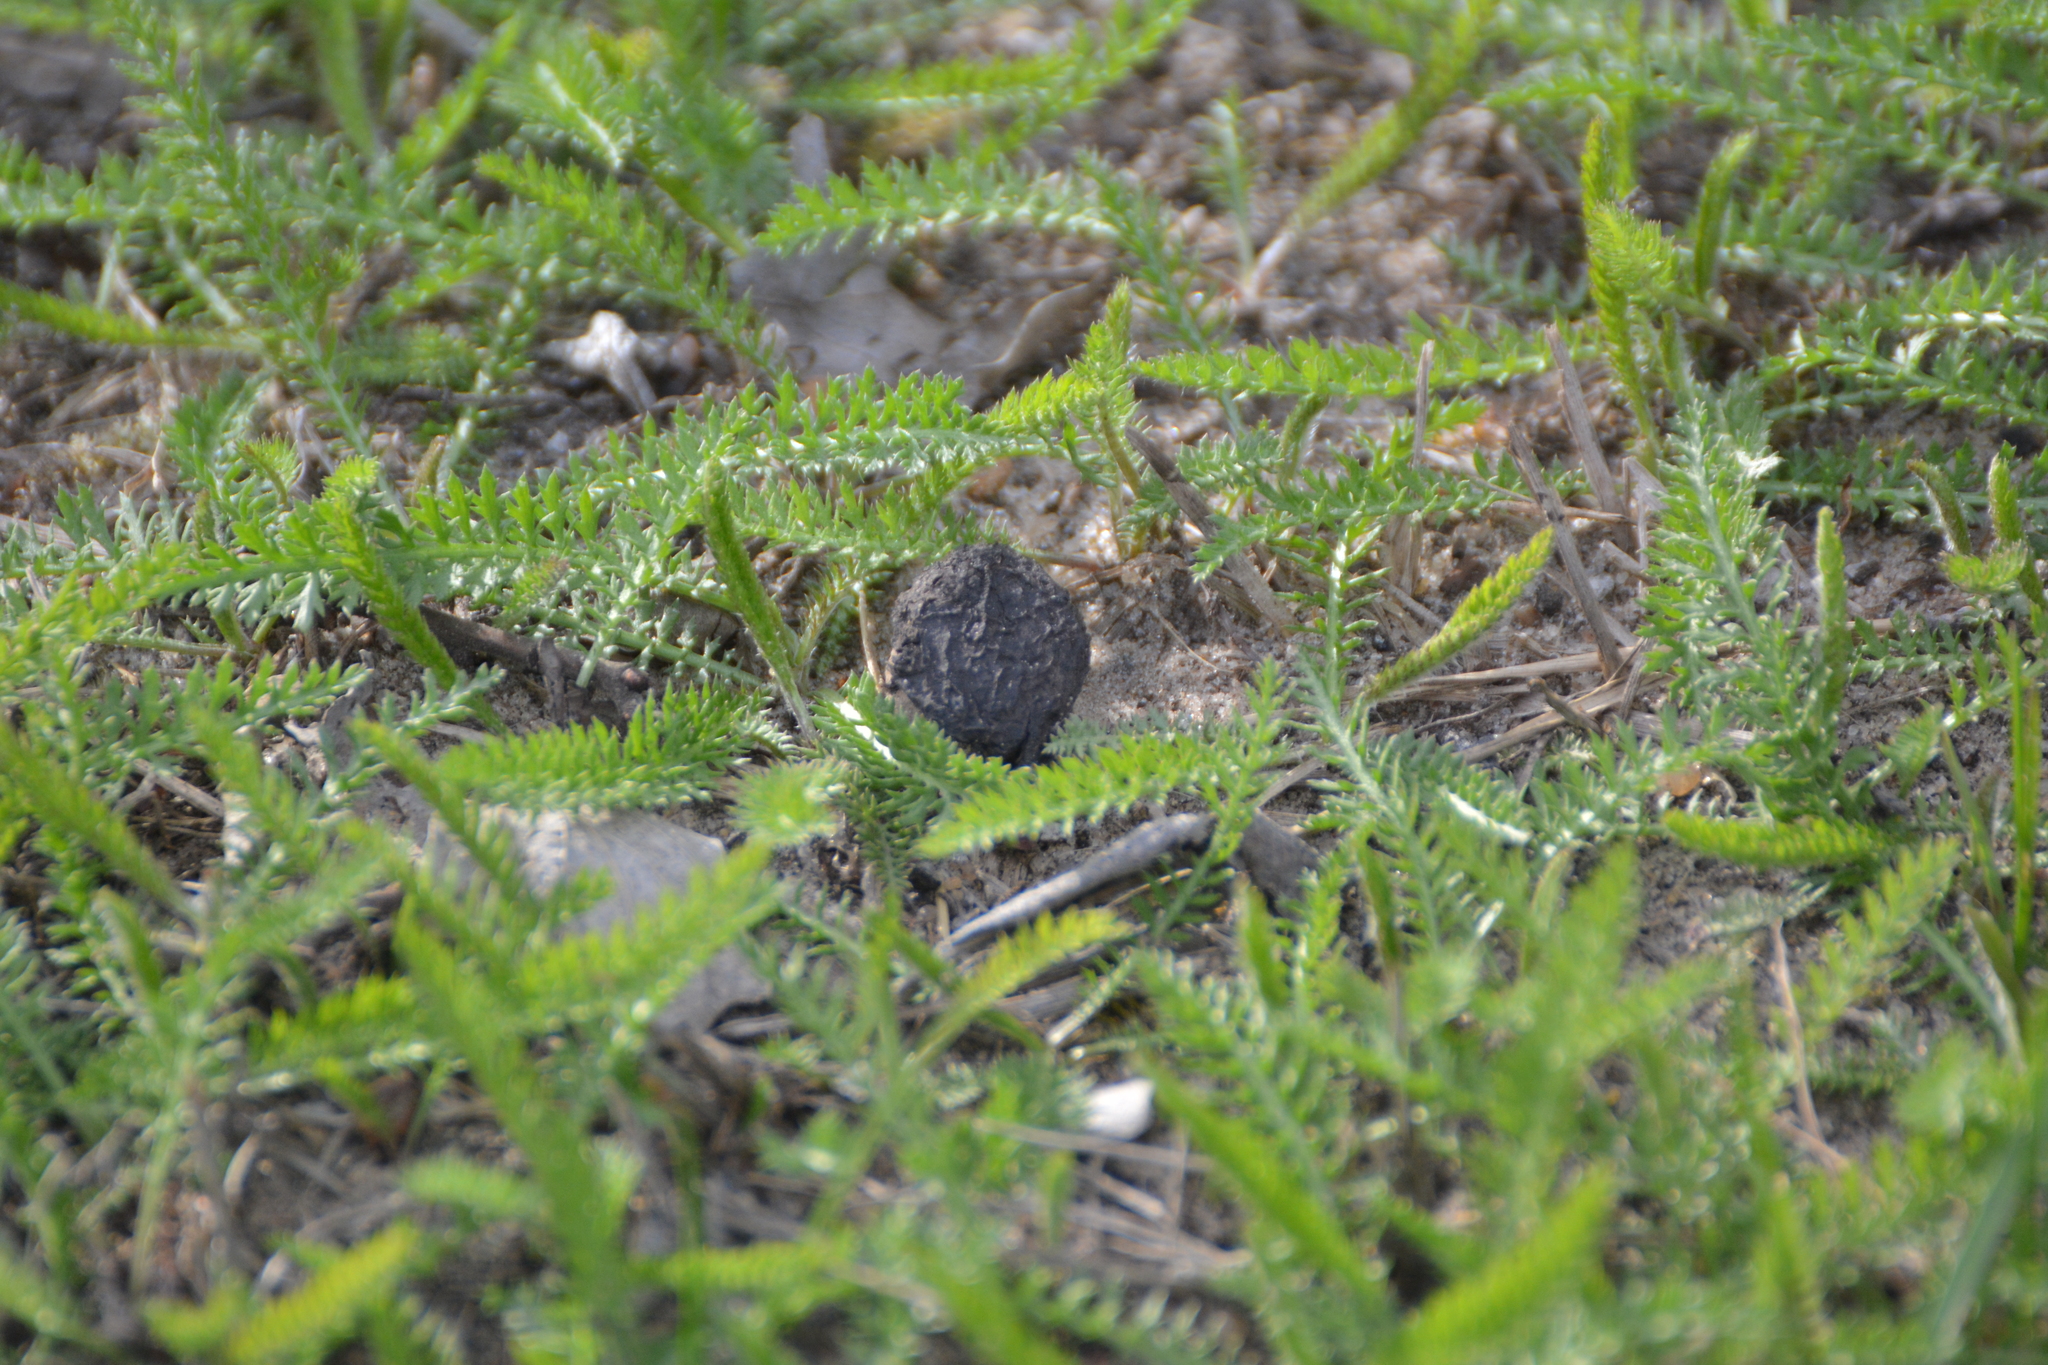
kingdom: Plantae
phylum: Tracheophyta
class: Magnoliopsida
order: Asterales
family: Asteraceae
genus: Achillea
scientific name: Achillea millefolium
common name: Yarrow
